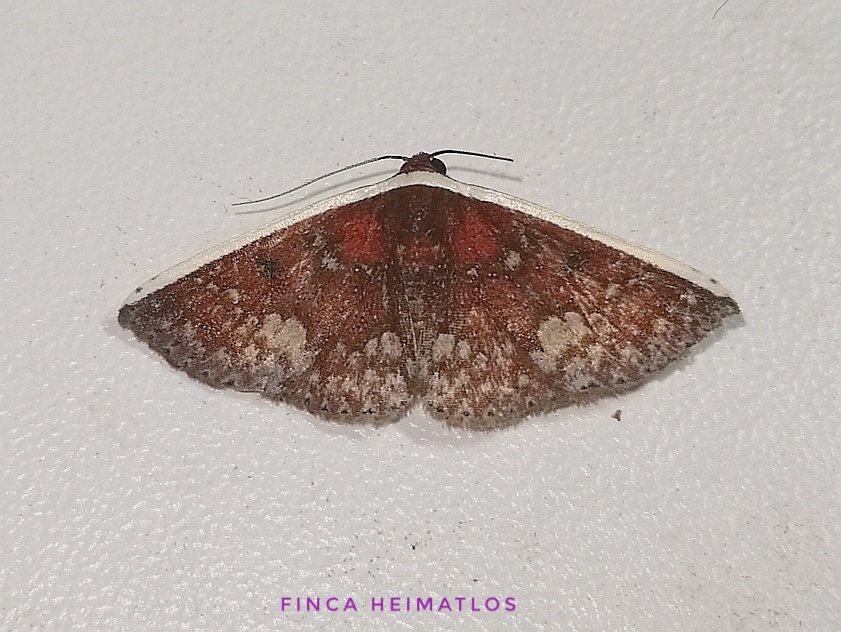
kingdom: Animalia
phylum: Arthropoda
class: Insecta
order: Lepidoptera
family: Noctuidae
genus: Oruza
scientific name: Oruza chionocraspis
